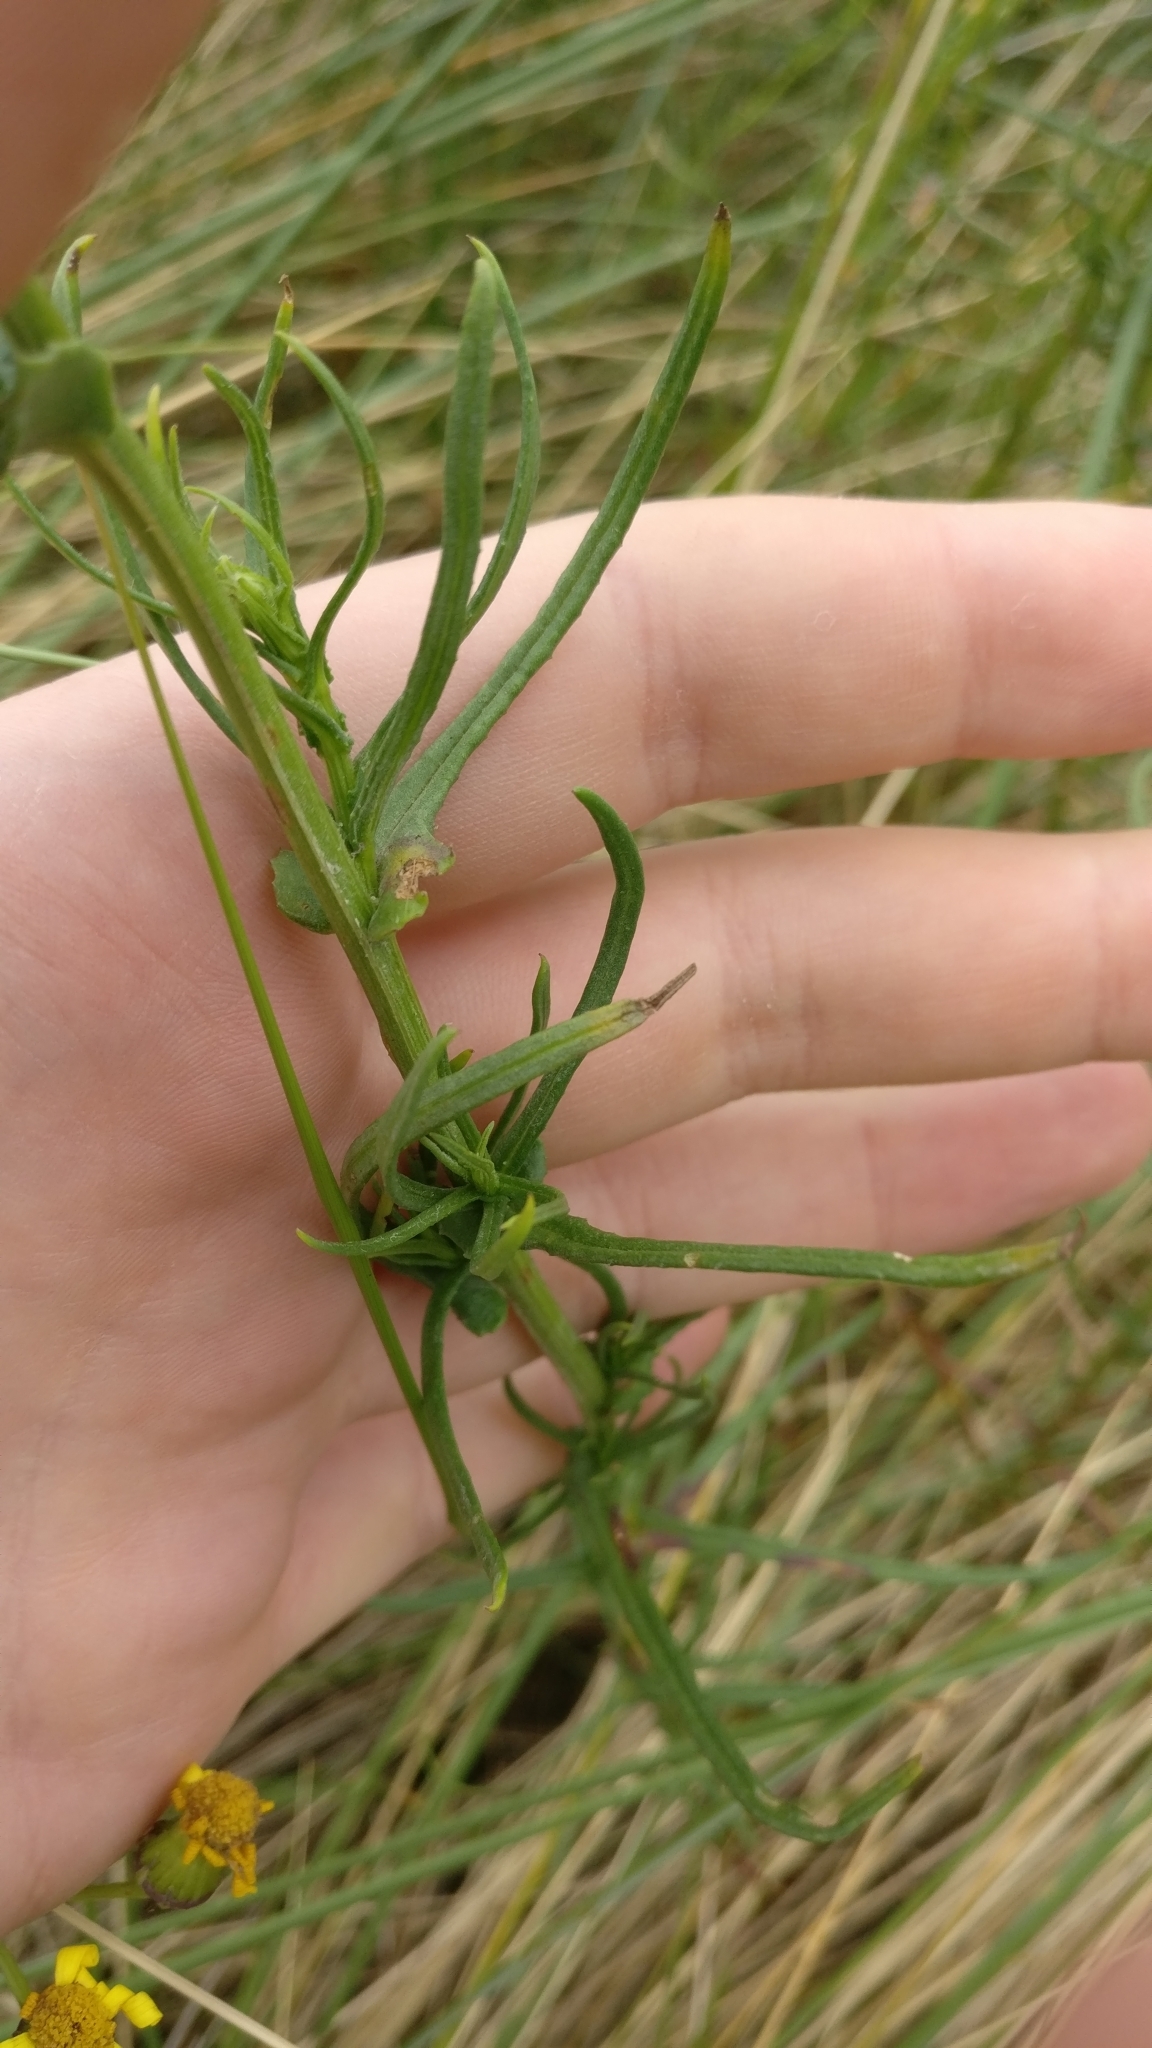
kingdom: Plantae
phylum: Tracheophyta
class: Magnoliopsida
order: Asterales
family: Asteraceae
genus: Senecio
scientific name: Senecio inaequidens
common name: Narrow-leaved ragwort
